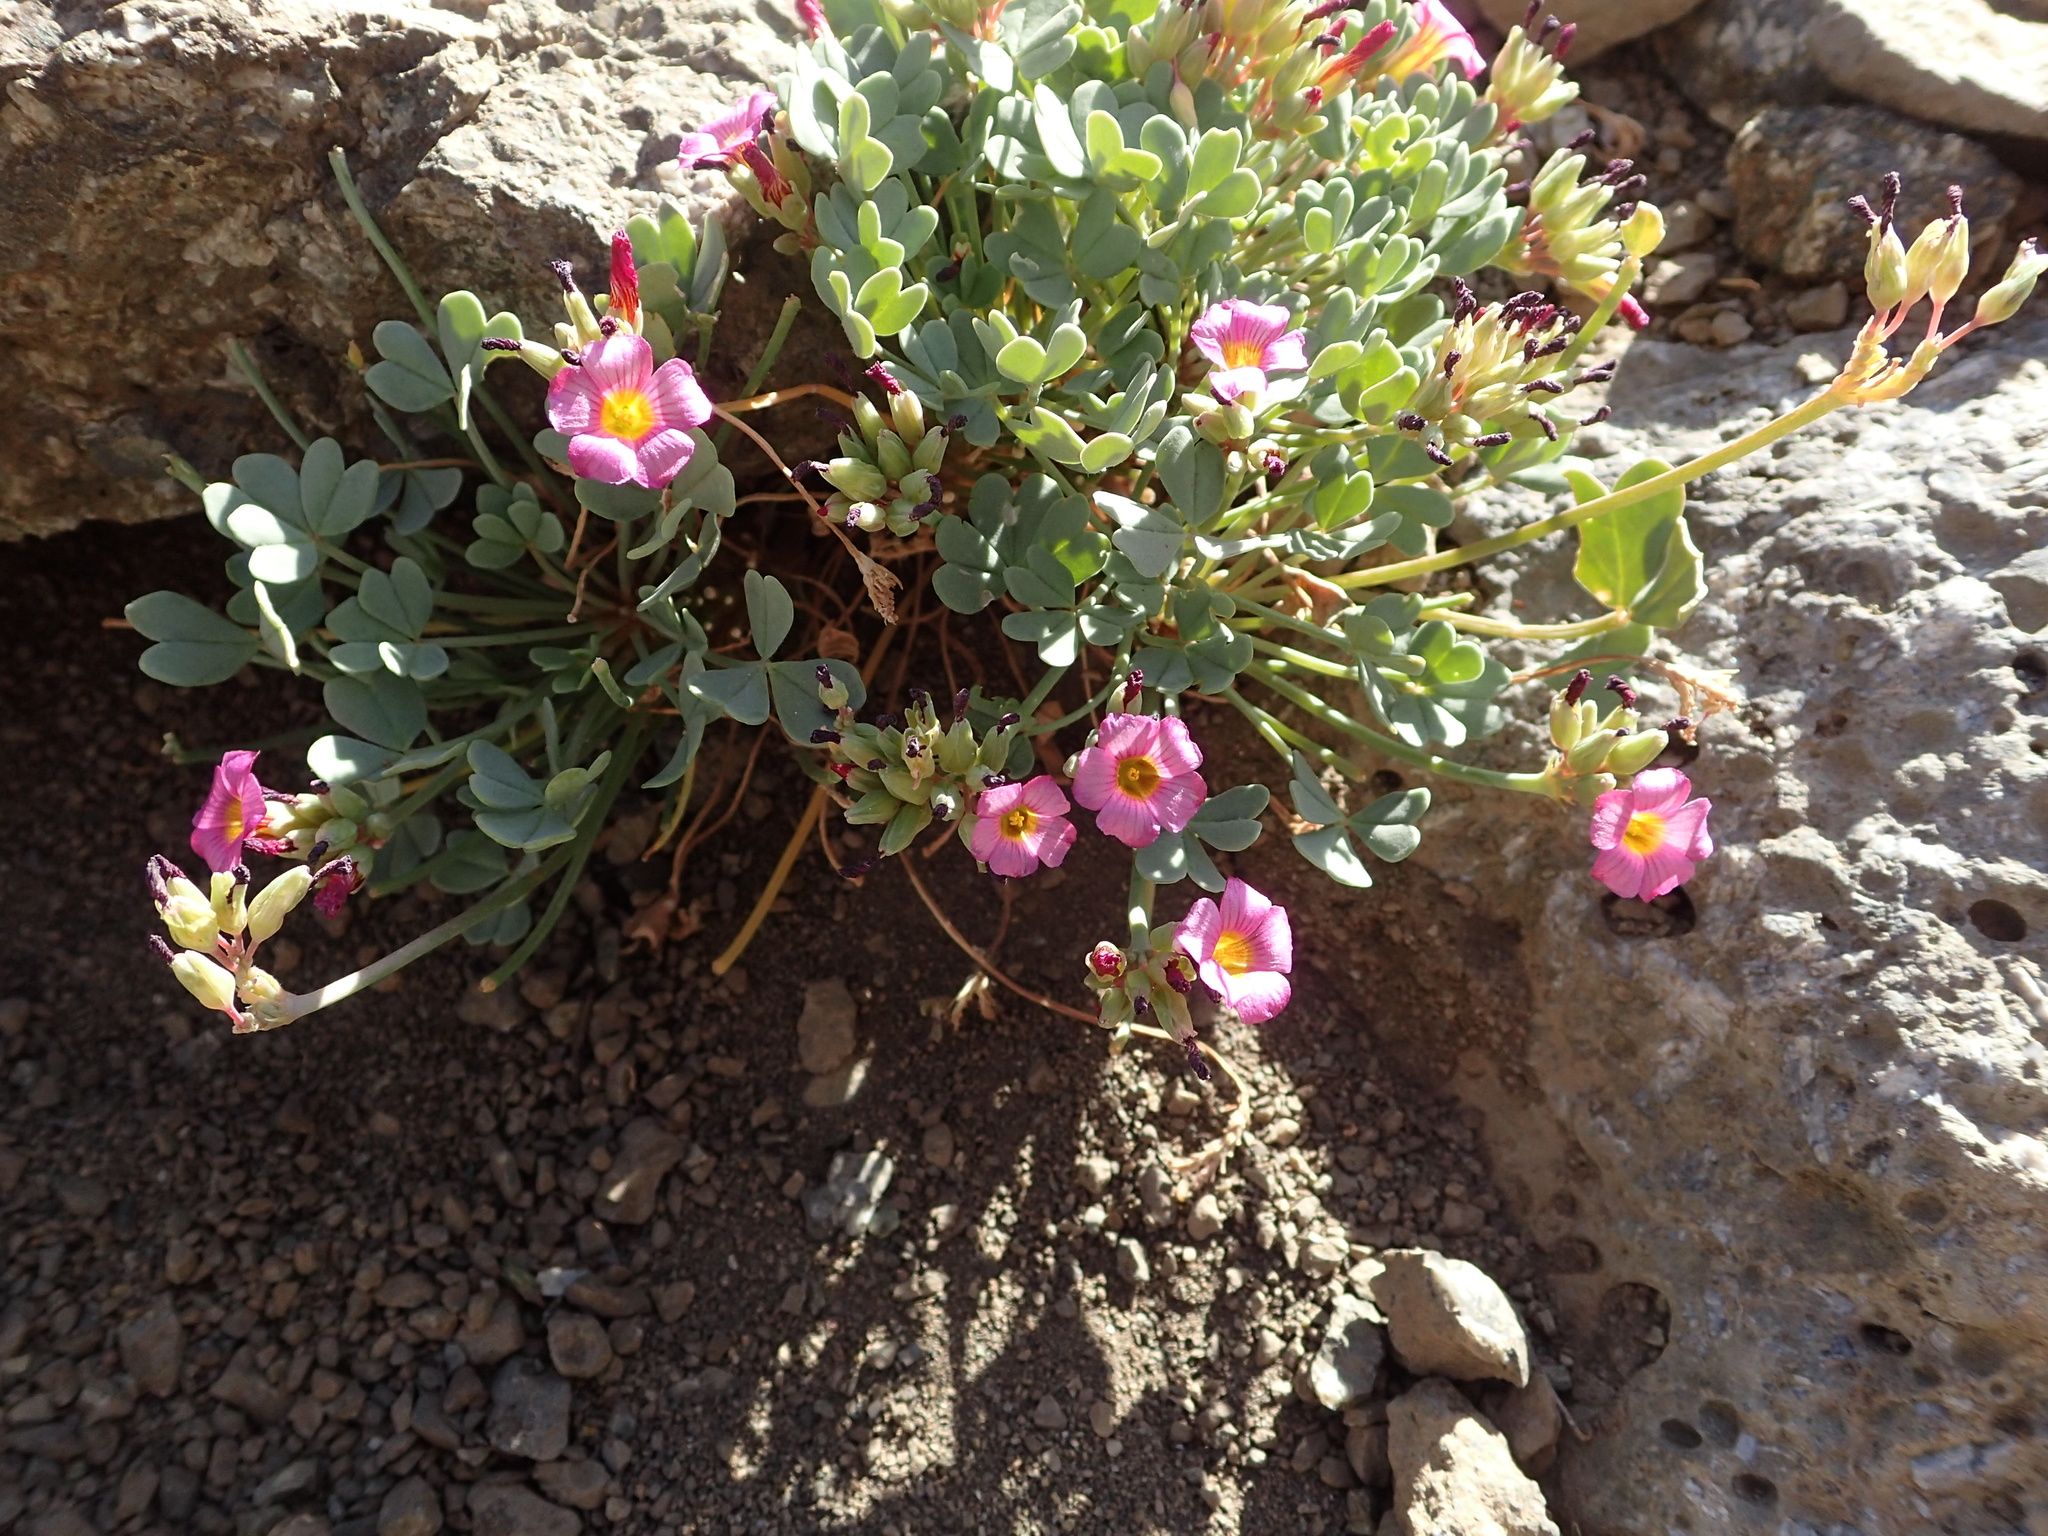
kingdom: Plantae
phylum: Tracheophyta
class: Magnoliopsida
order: Oxalidales
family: Oxalidaceae
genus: Oxalis
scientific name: Oxalis squamata
